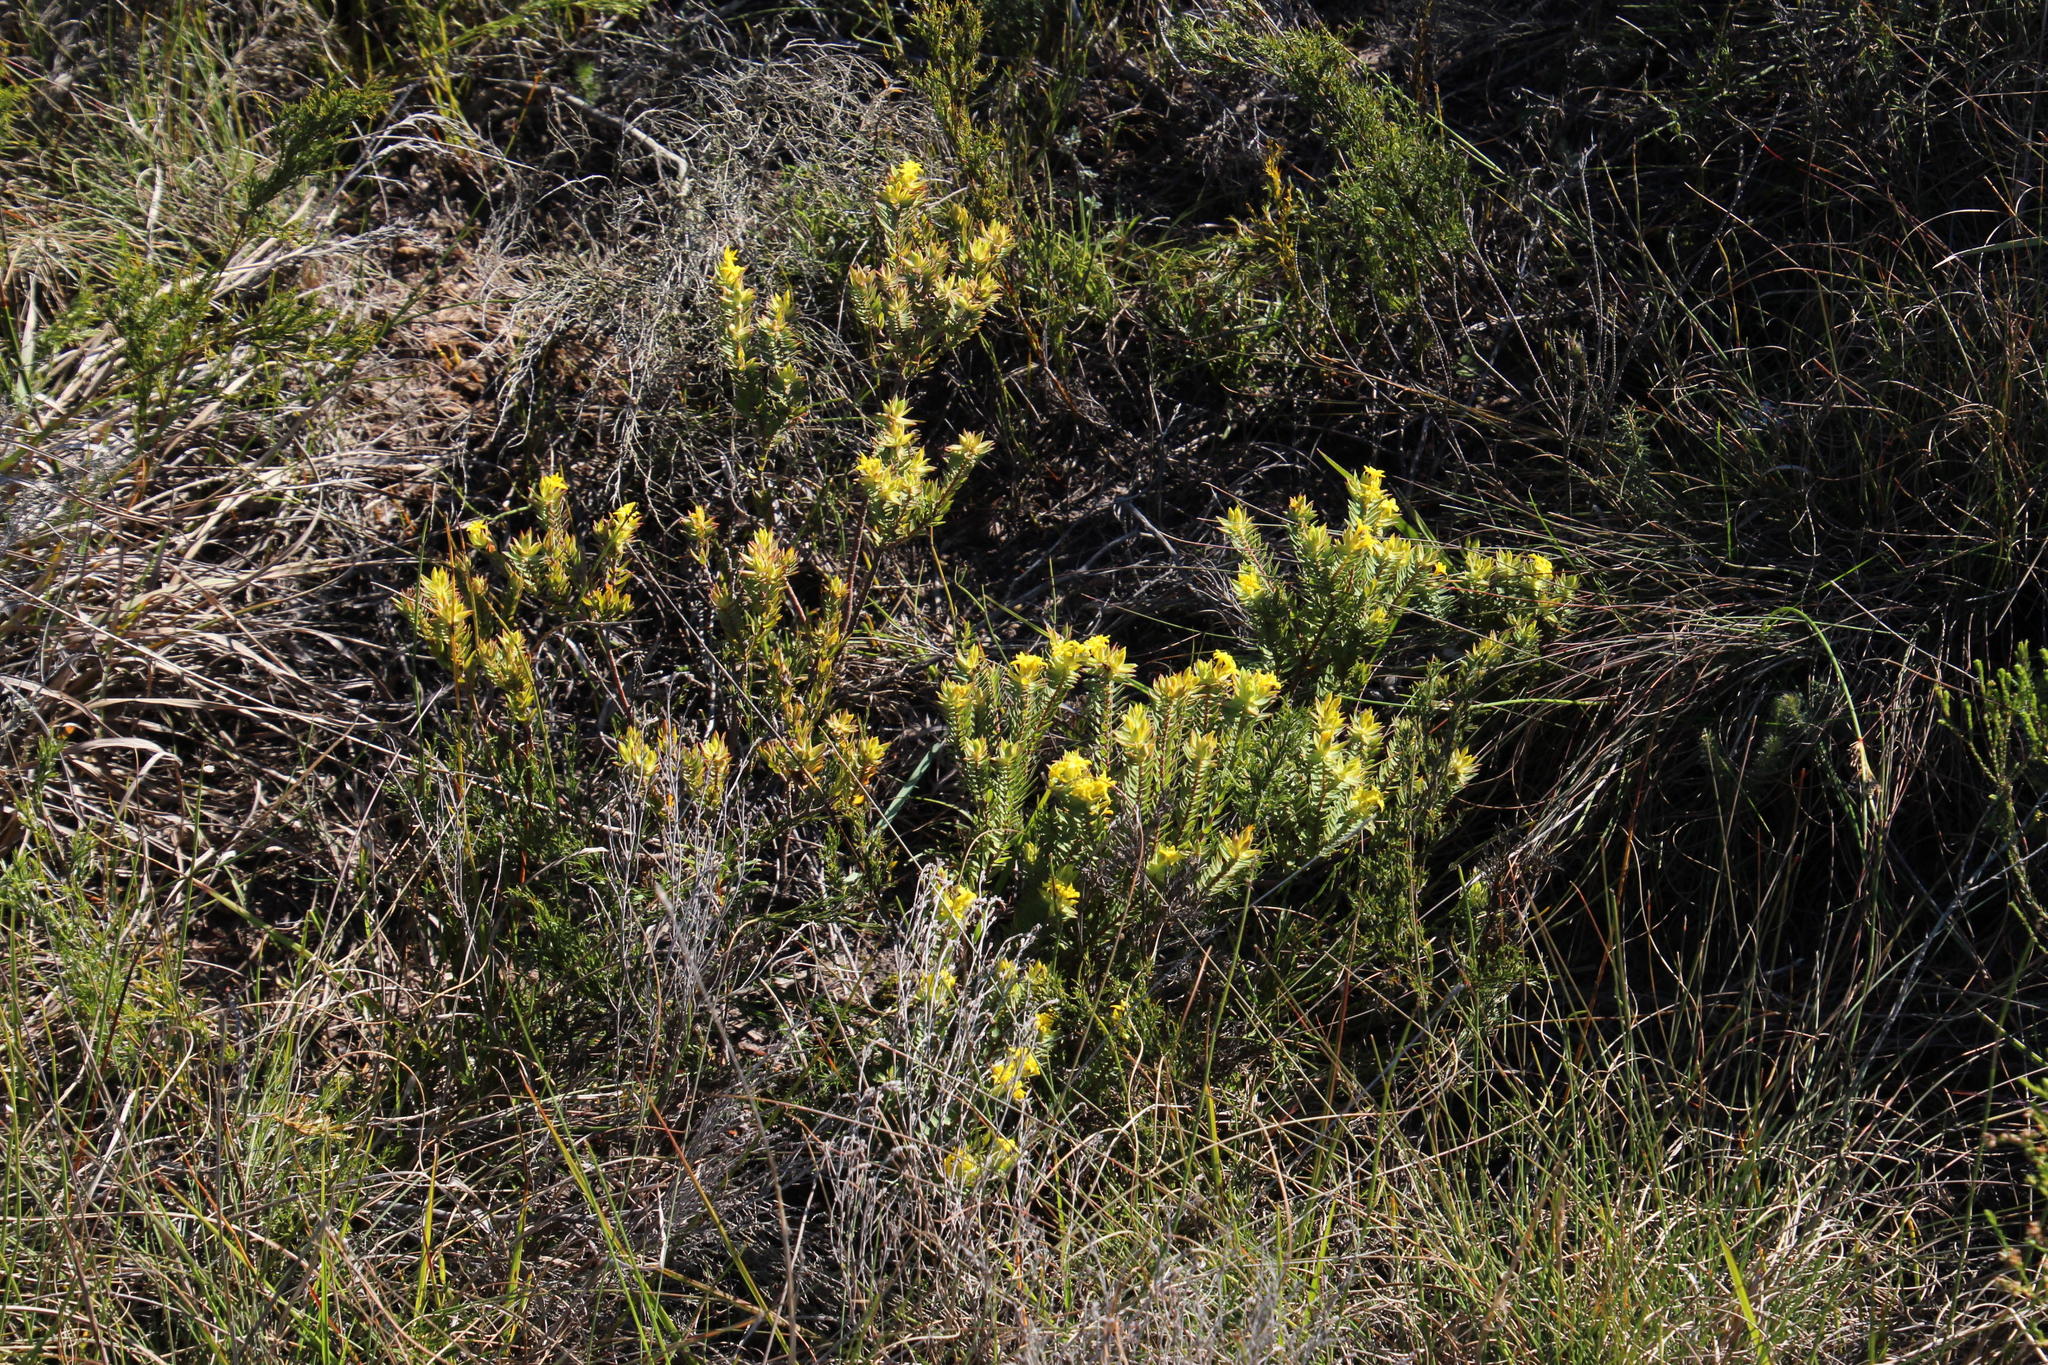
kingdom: Plantae
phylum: Tracheophyta
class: Magnoliopsida
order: Malvales
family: Thymelaeaceae
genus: Gnidia
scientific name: Gnidia styphelioides
